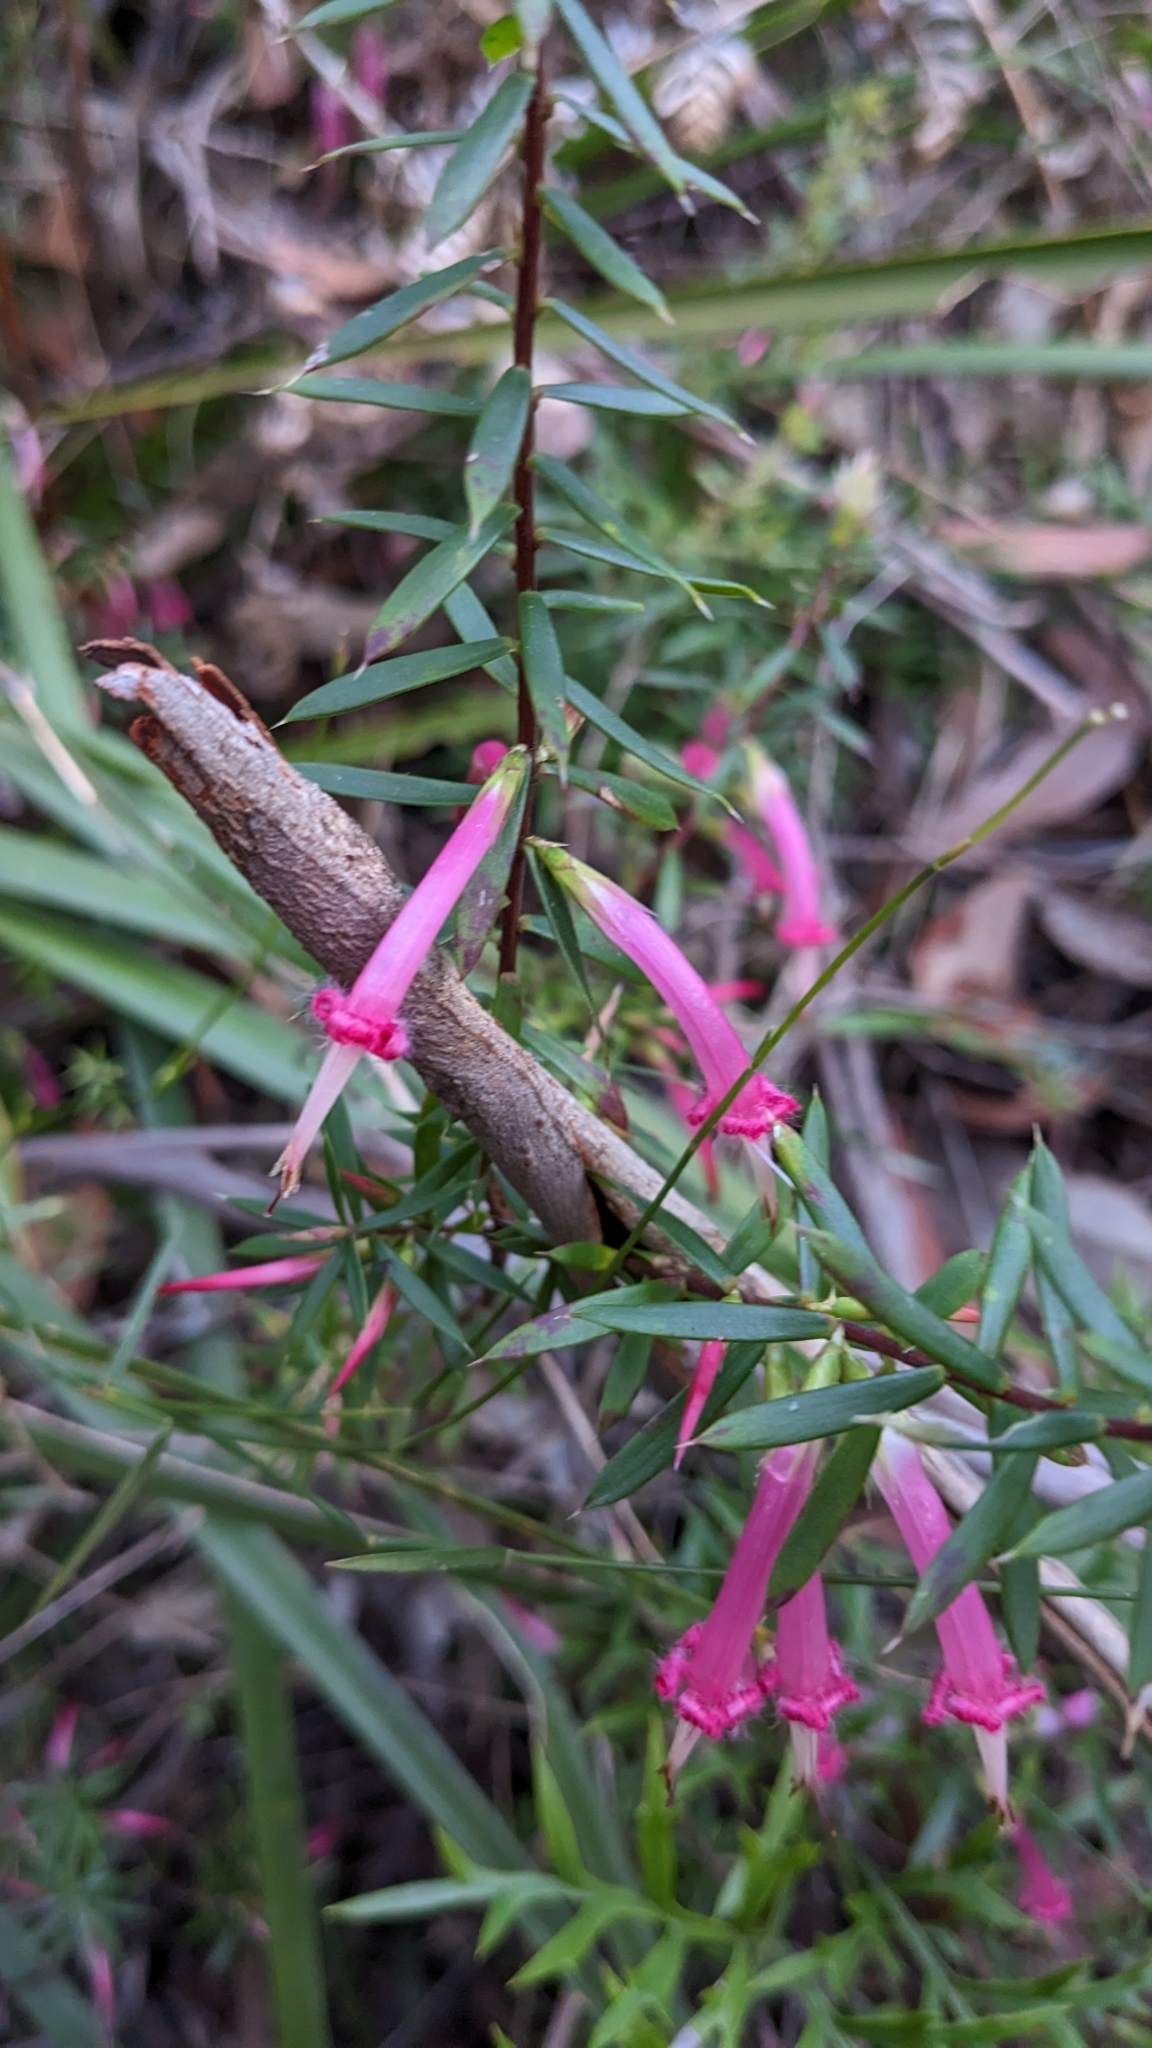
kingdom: Plantae
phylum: Tracheophyta
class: Magnoliopsida
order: Ericales
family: Ericaceae
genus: Styphelia
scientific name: Styphelia tubiflora
